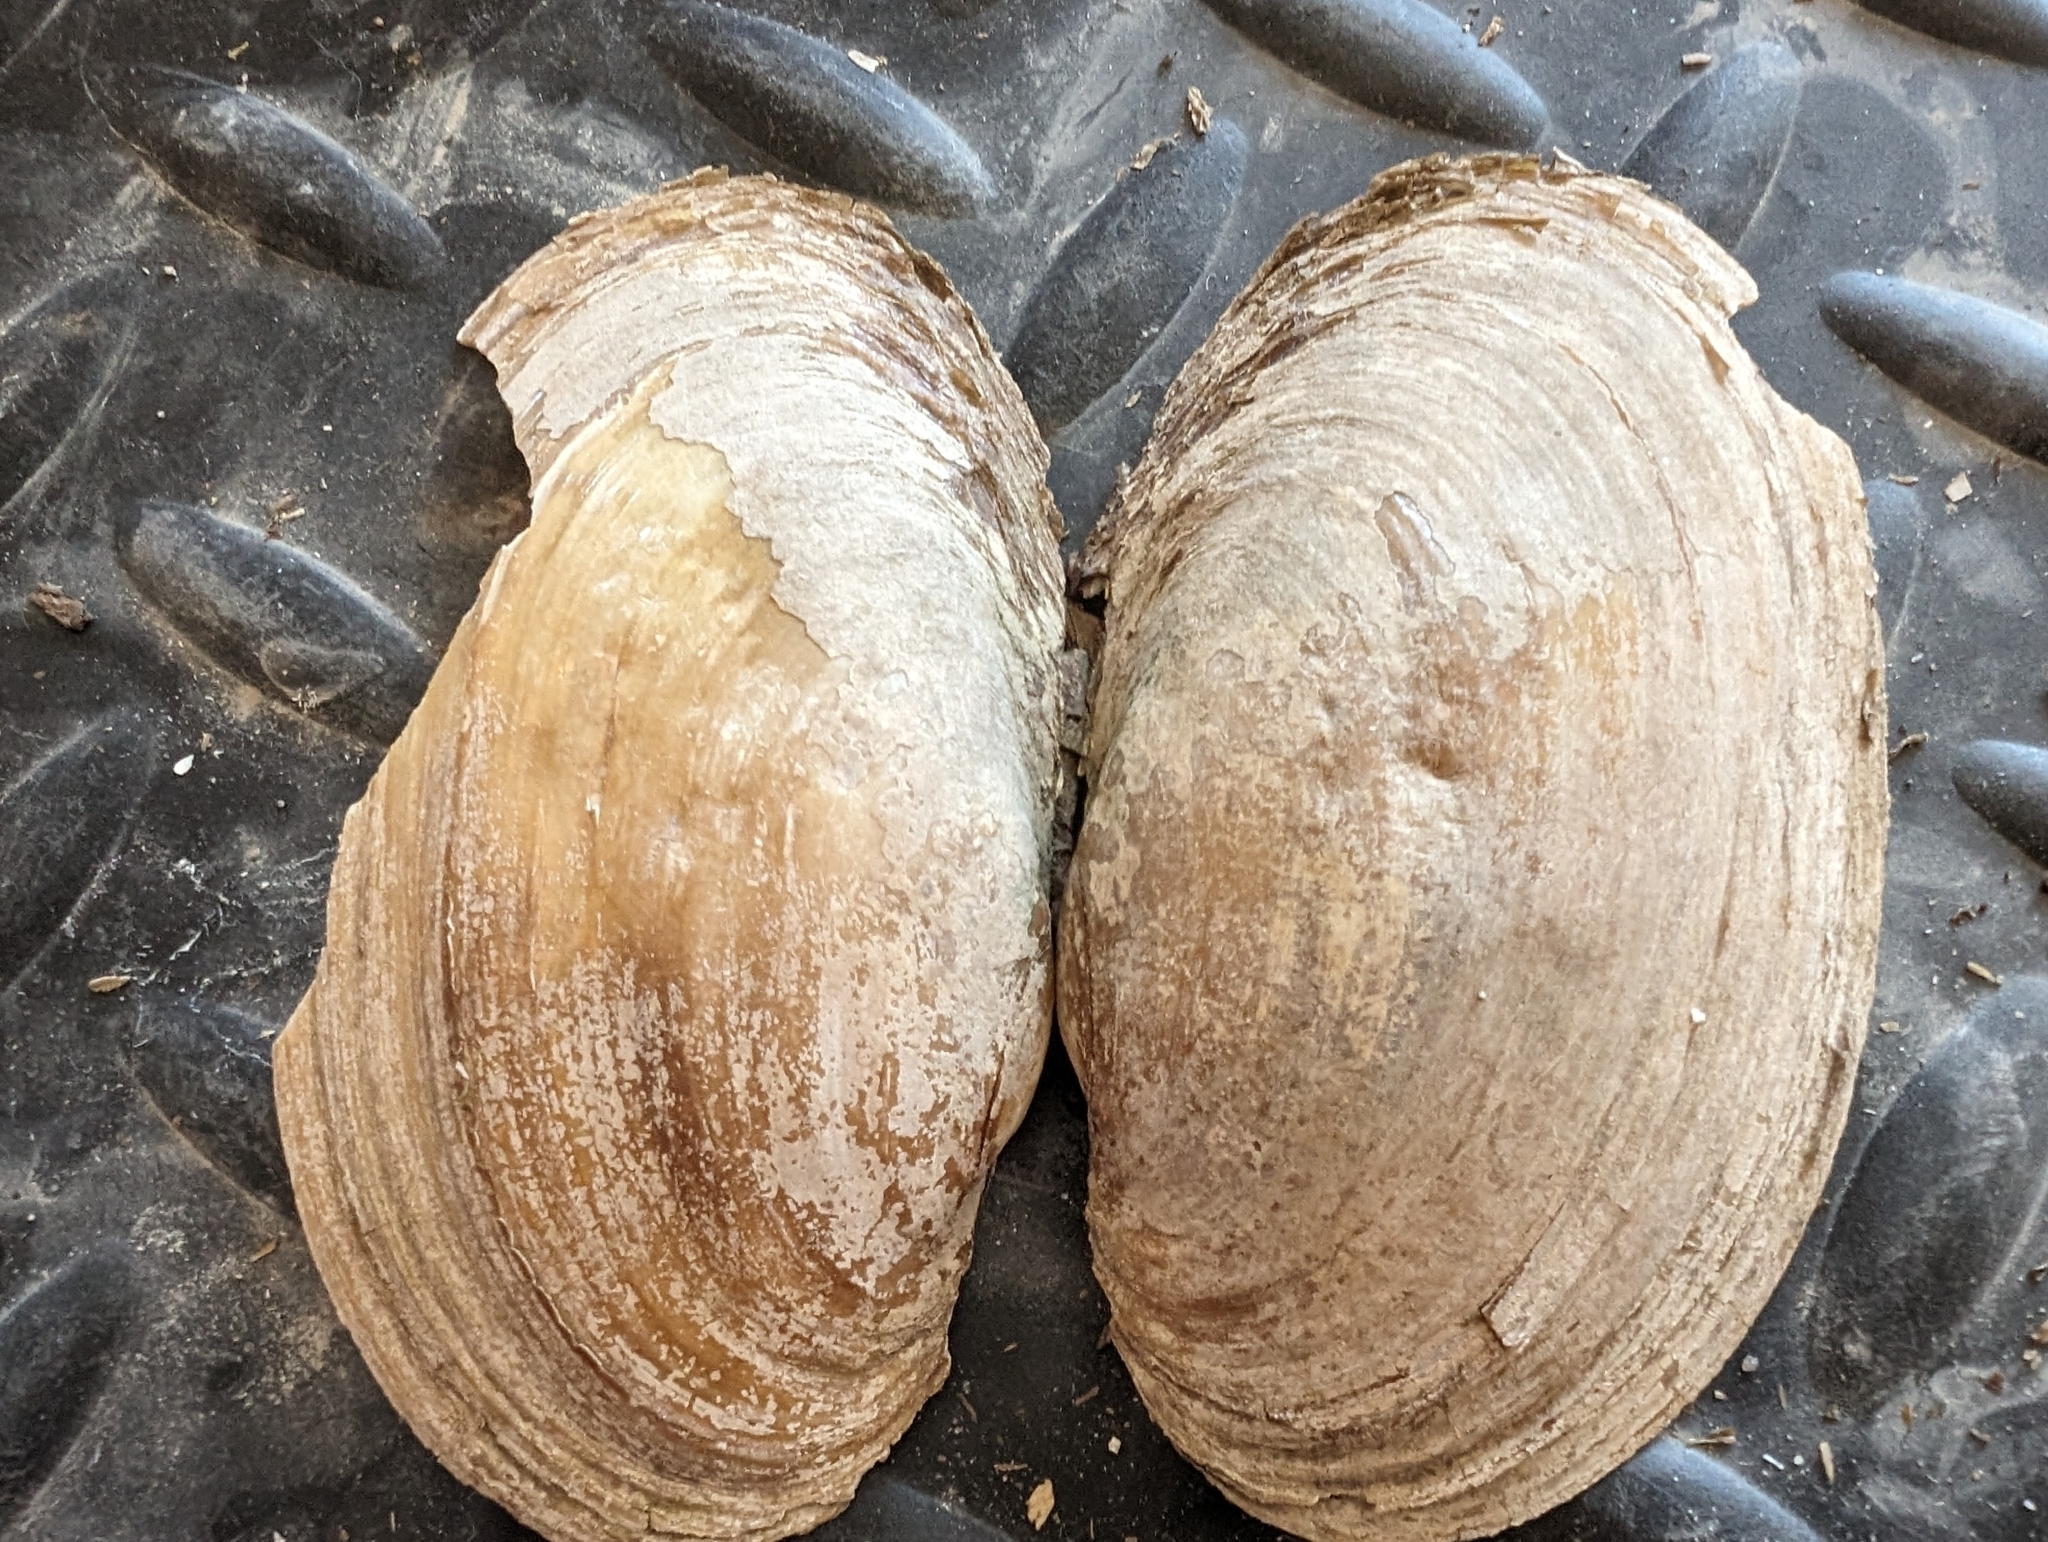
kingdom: Animalia
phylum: Mollusca
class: Bivalvia
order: Unionida
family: Unionidae
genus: Potamilus
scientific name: Potamilus fragilis
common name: Fragile papershell
